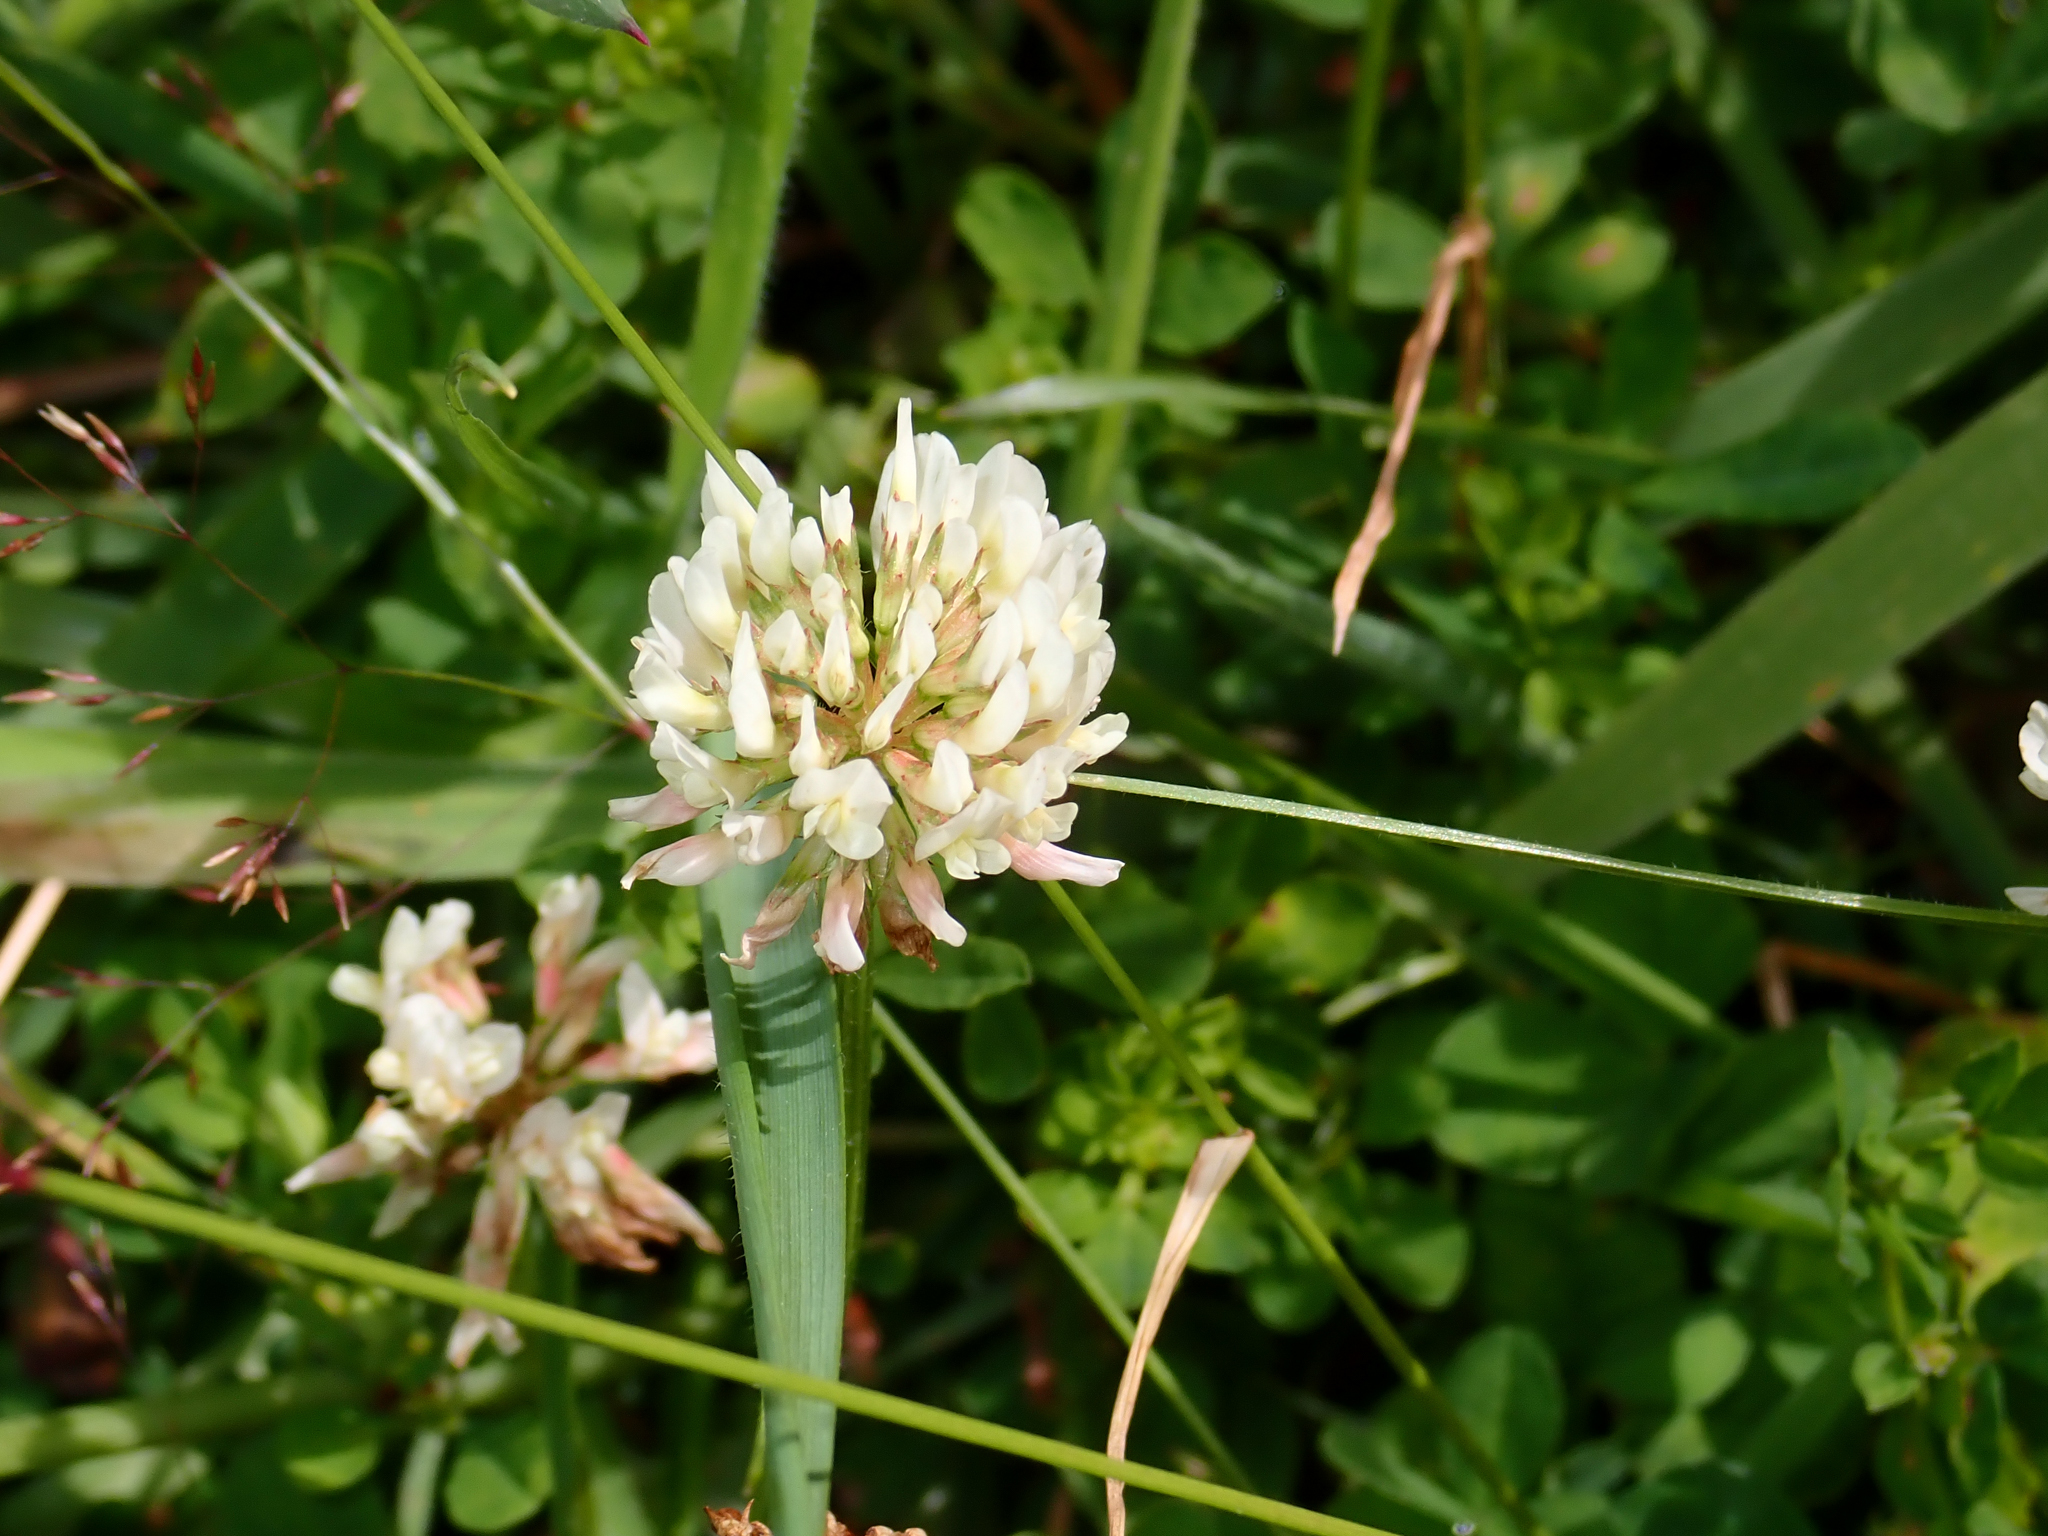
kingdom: Plantae
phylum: Tracheophyta
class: Magnoliopsida
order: Fabales
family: Fabaceae
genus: Trifolium
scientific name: Trifolium repens
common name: White clover
